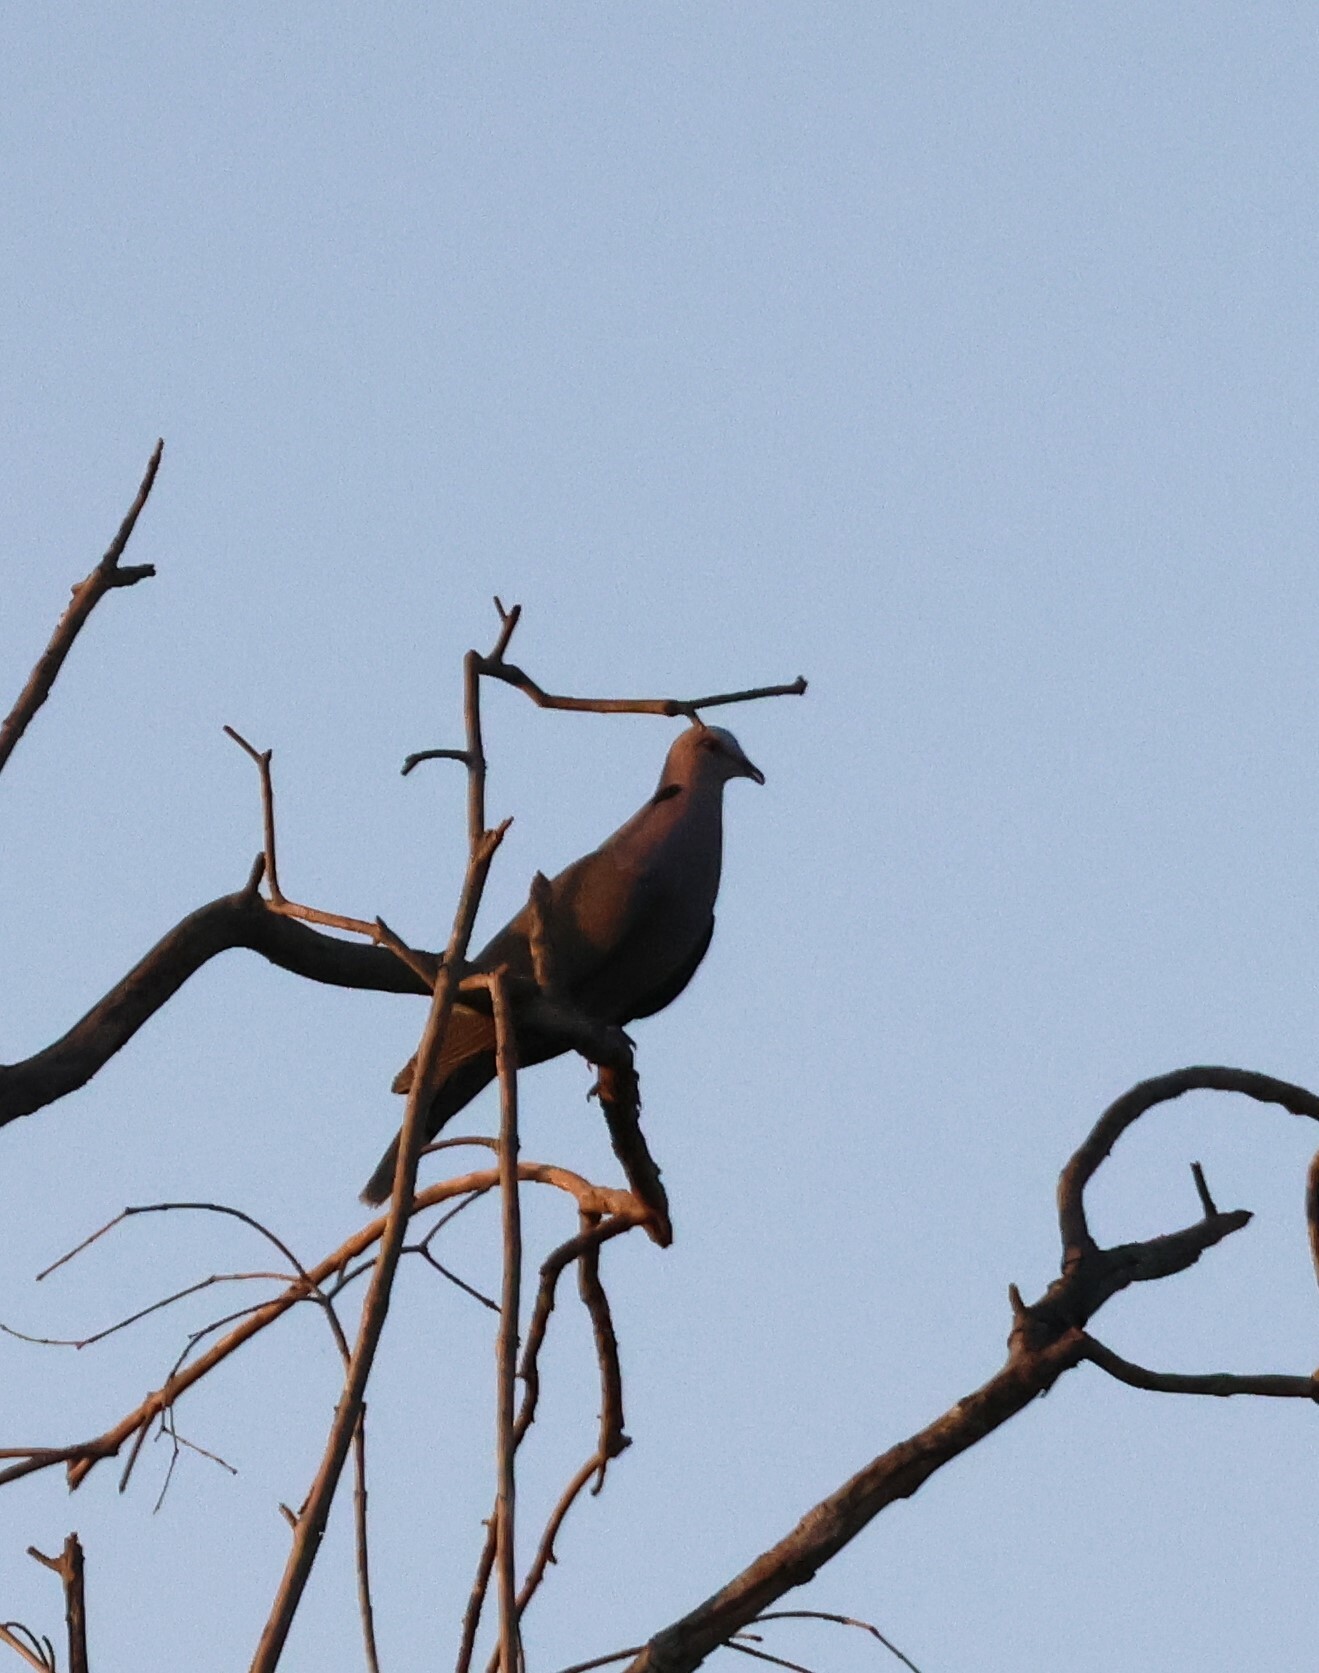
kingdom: Animalia
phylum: Chordata
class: Aves
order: Columbiformes
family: Columbidae
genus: Streptopelia
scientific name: Streptopelia semitorquata
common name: Red-eyed dove
